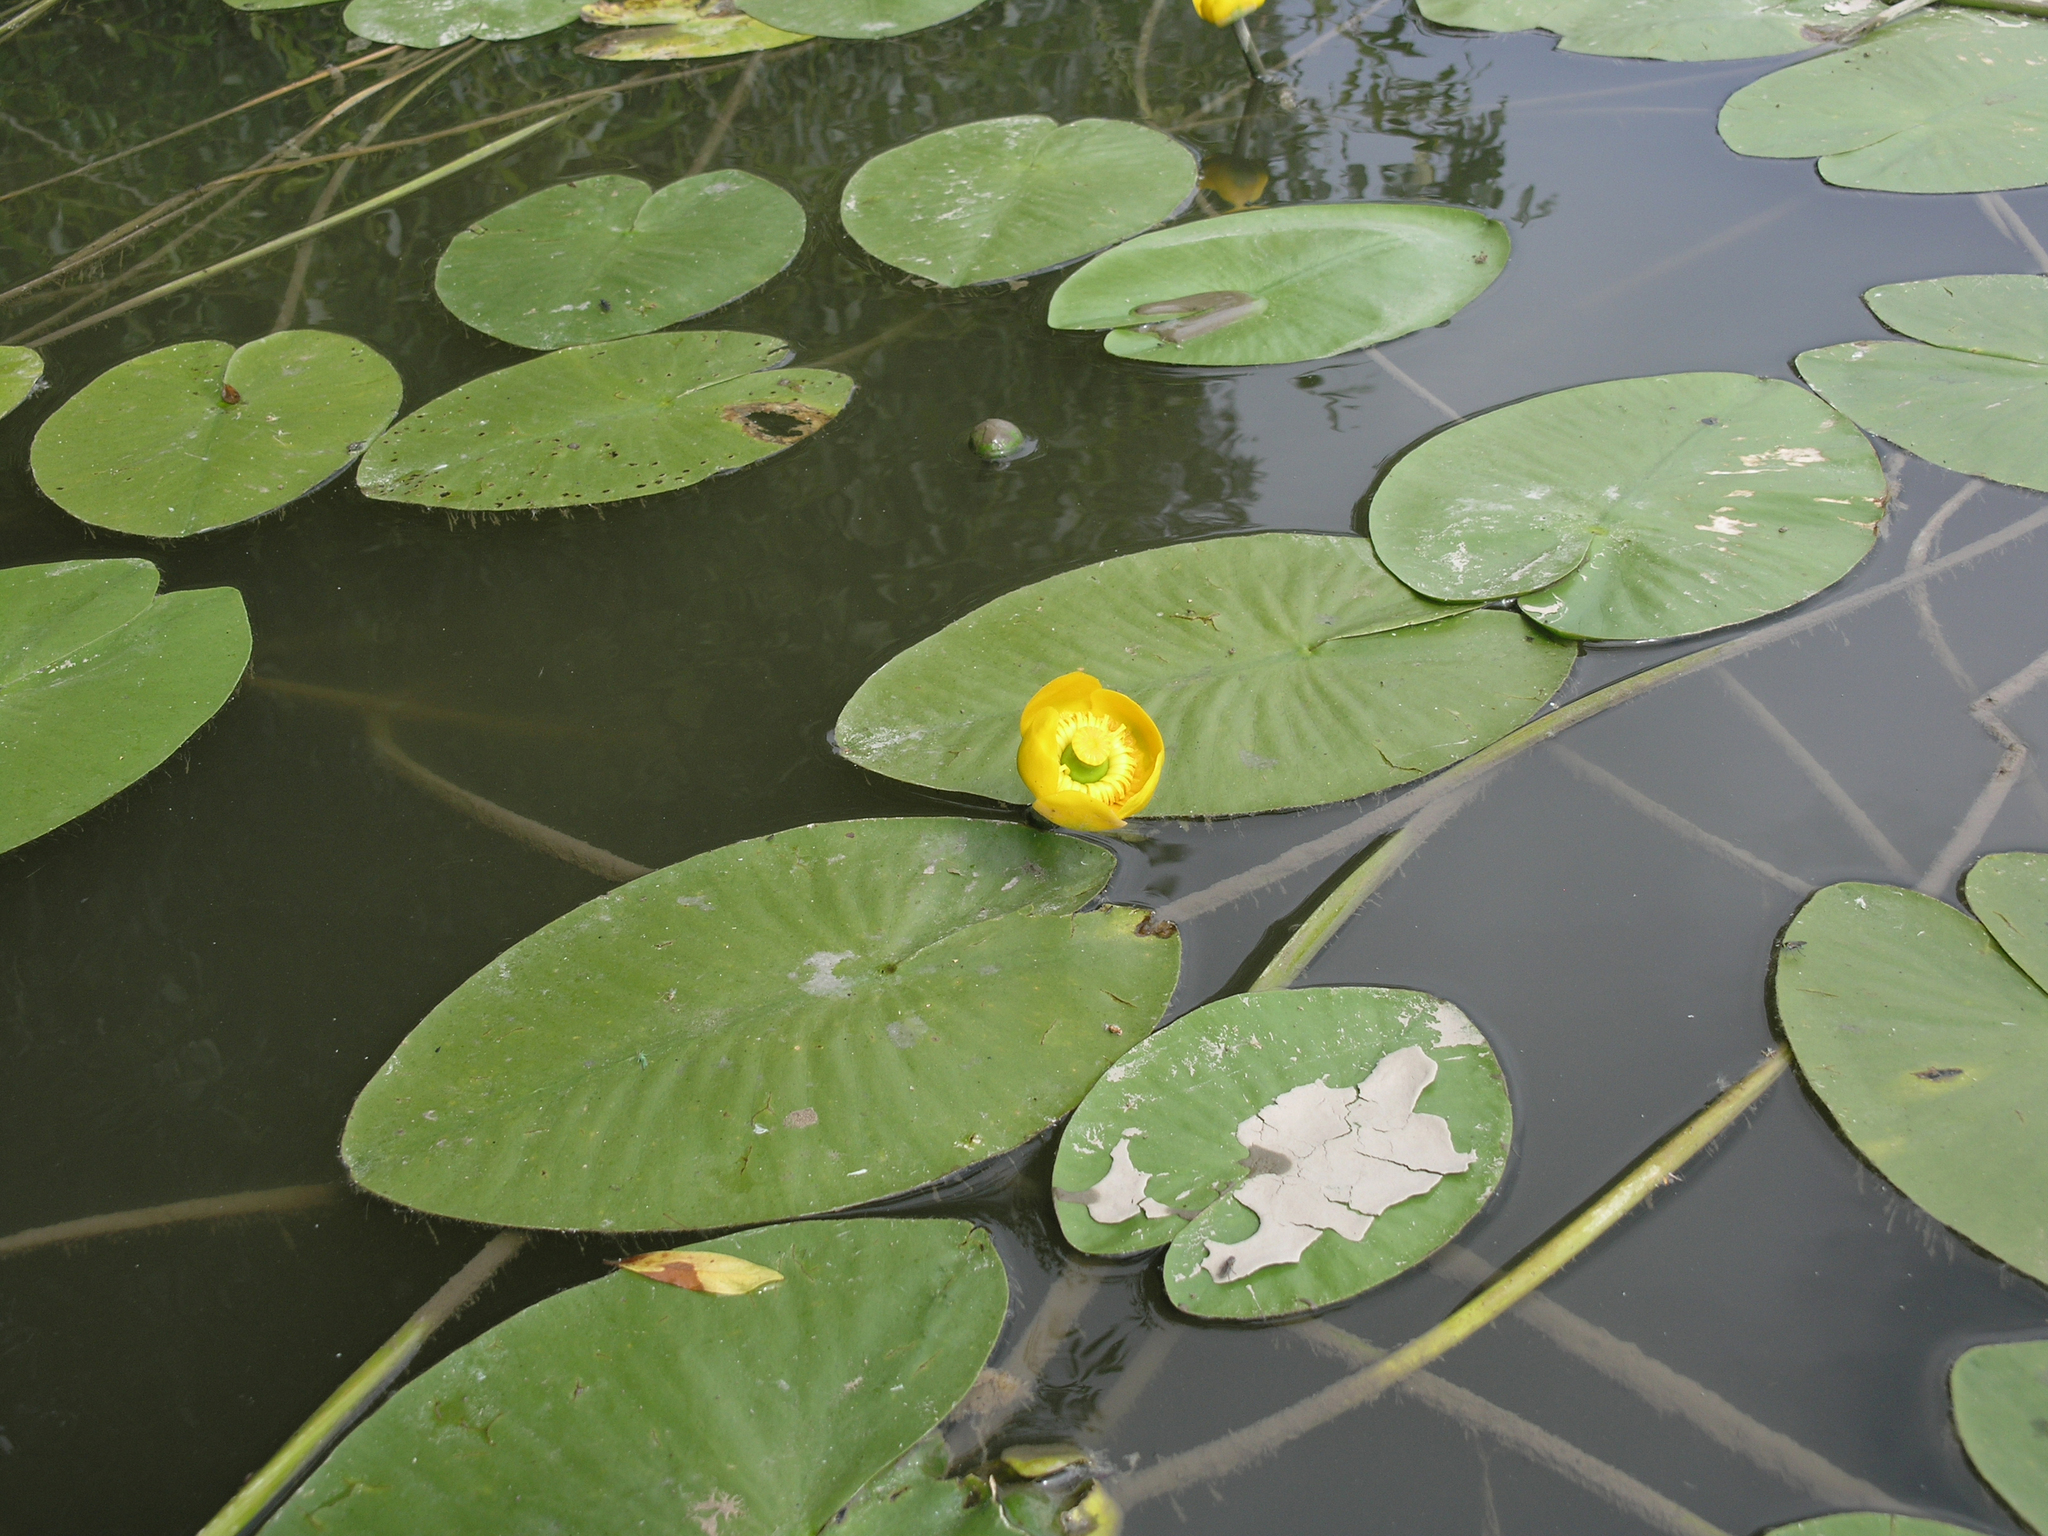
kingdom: Plantae
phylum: Tracheophyta
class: Magnoliopsida
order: Nymphaeales
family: Nymphaeaceae
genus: Nuphar
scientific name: Nuphar lutea
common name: Yellow water-lily
